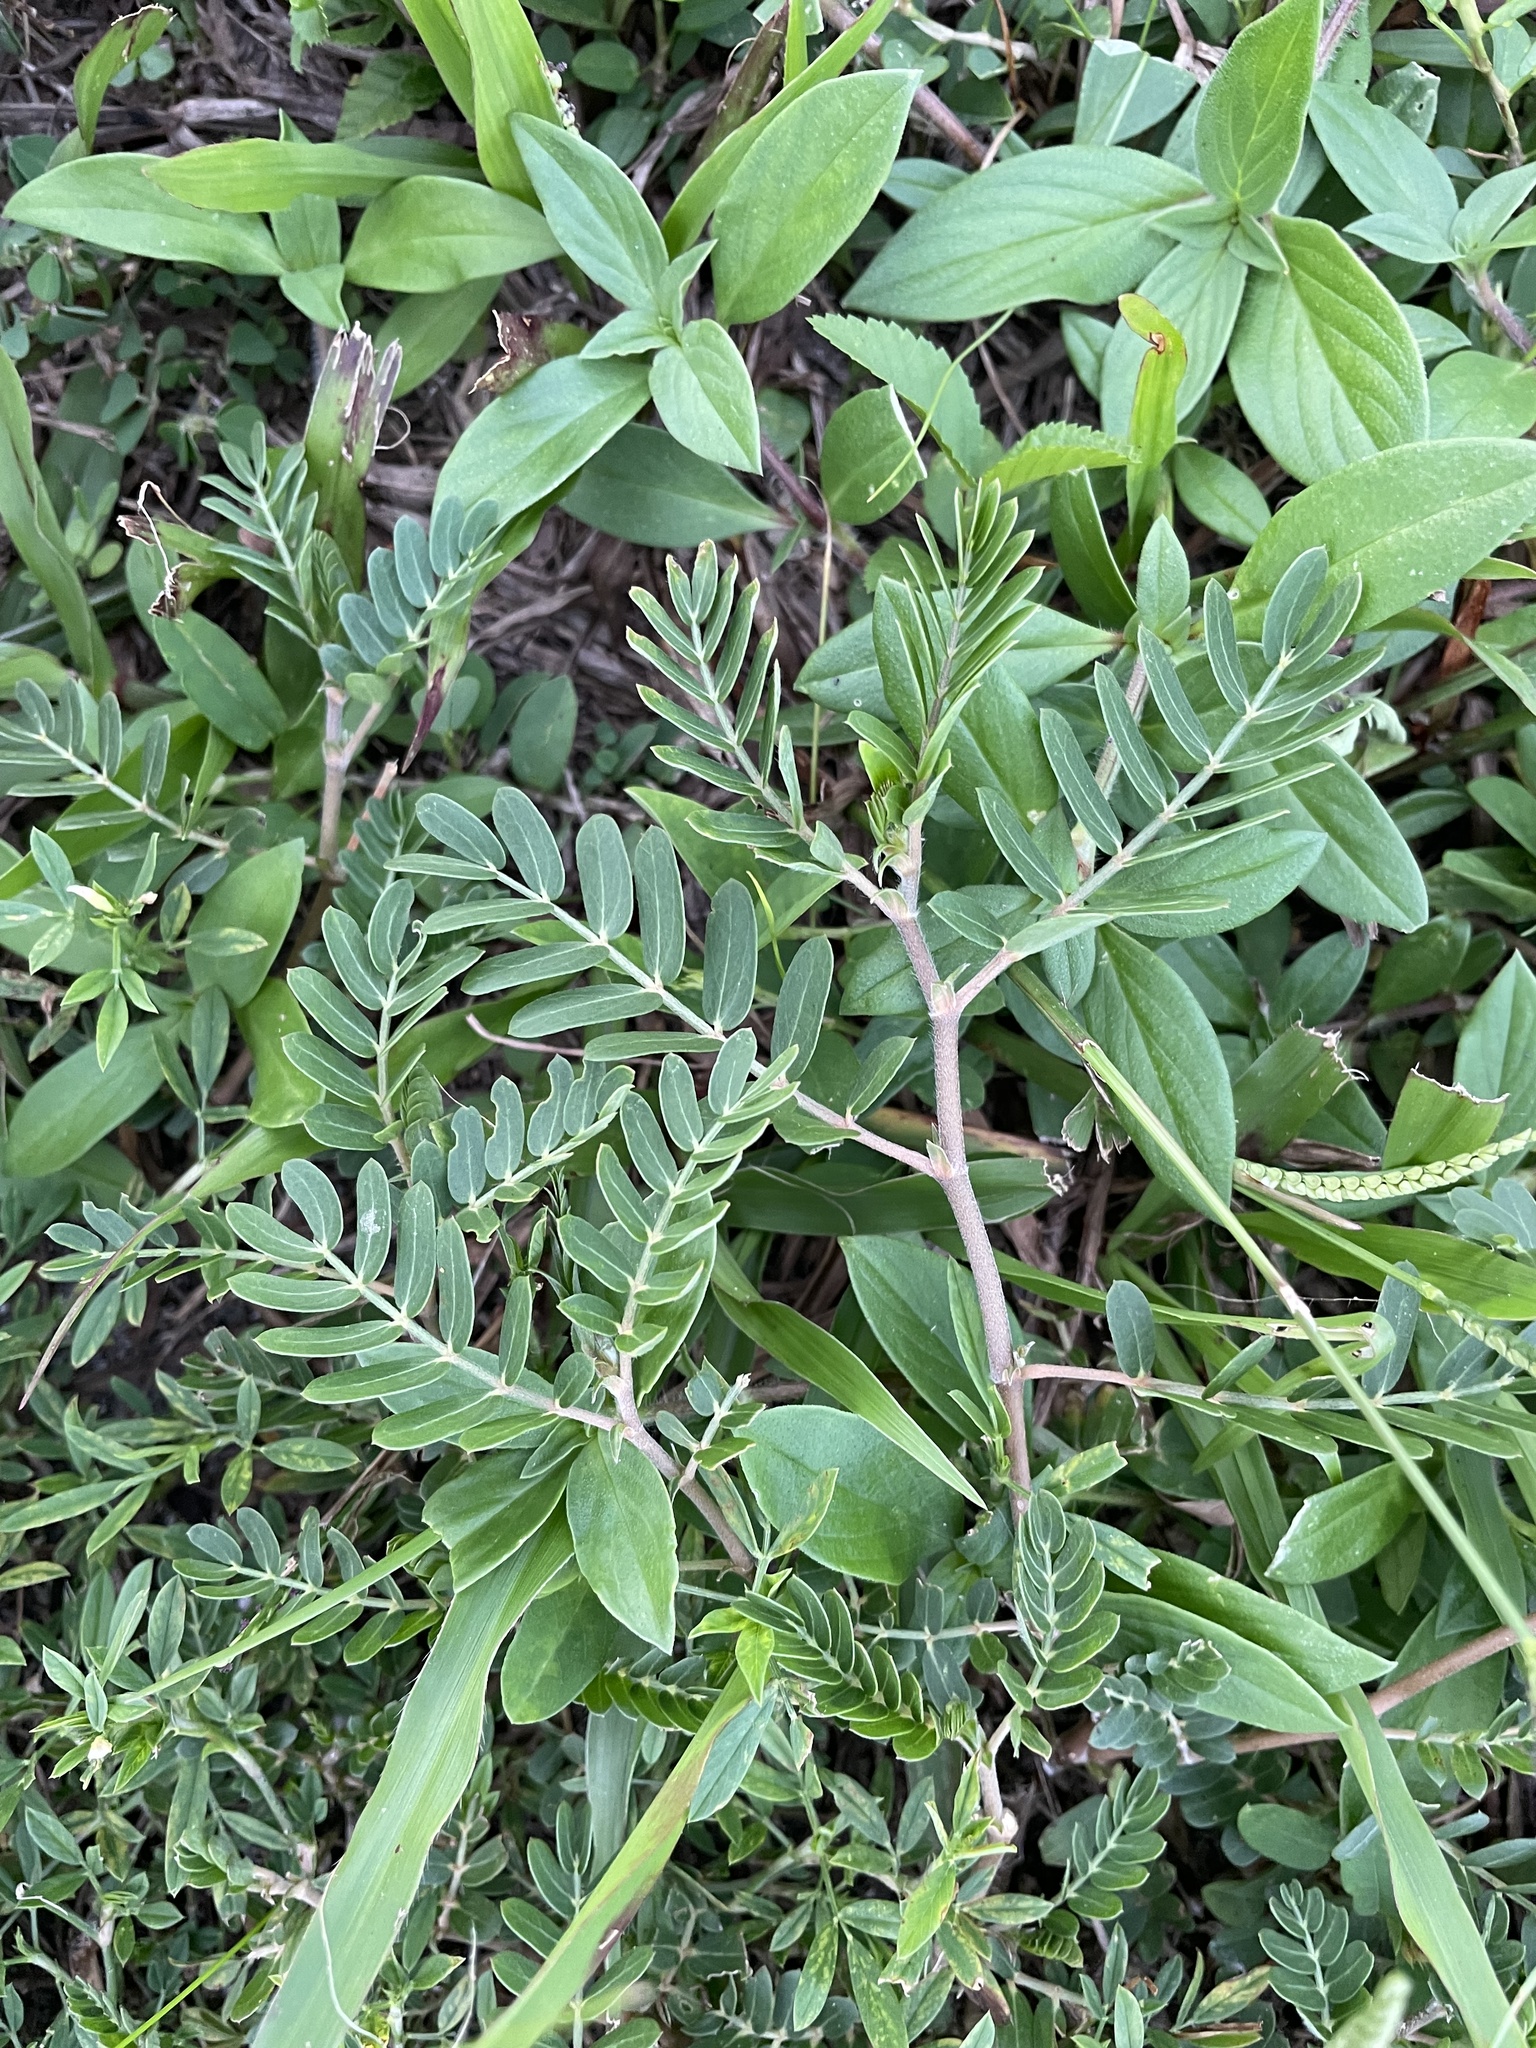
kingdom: Plantae
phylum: Tracheophyta
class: Magnoliopsida
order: Zygophyllales
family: Zygophyllaceae
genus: Tribulus
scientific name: Tribulus cistoides
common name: Jamaican feverplant
